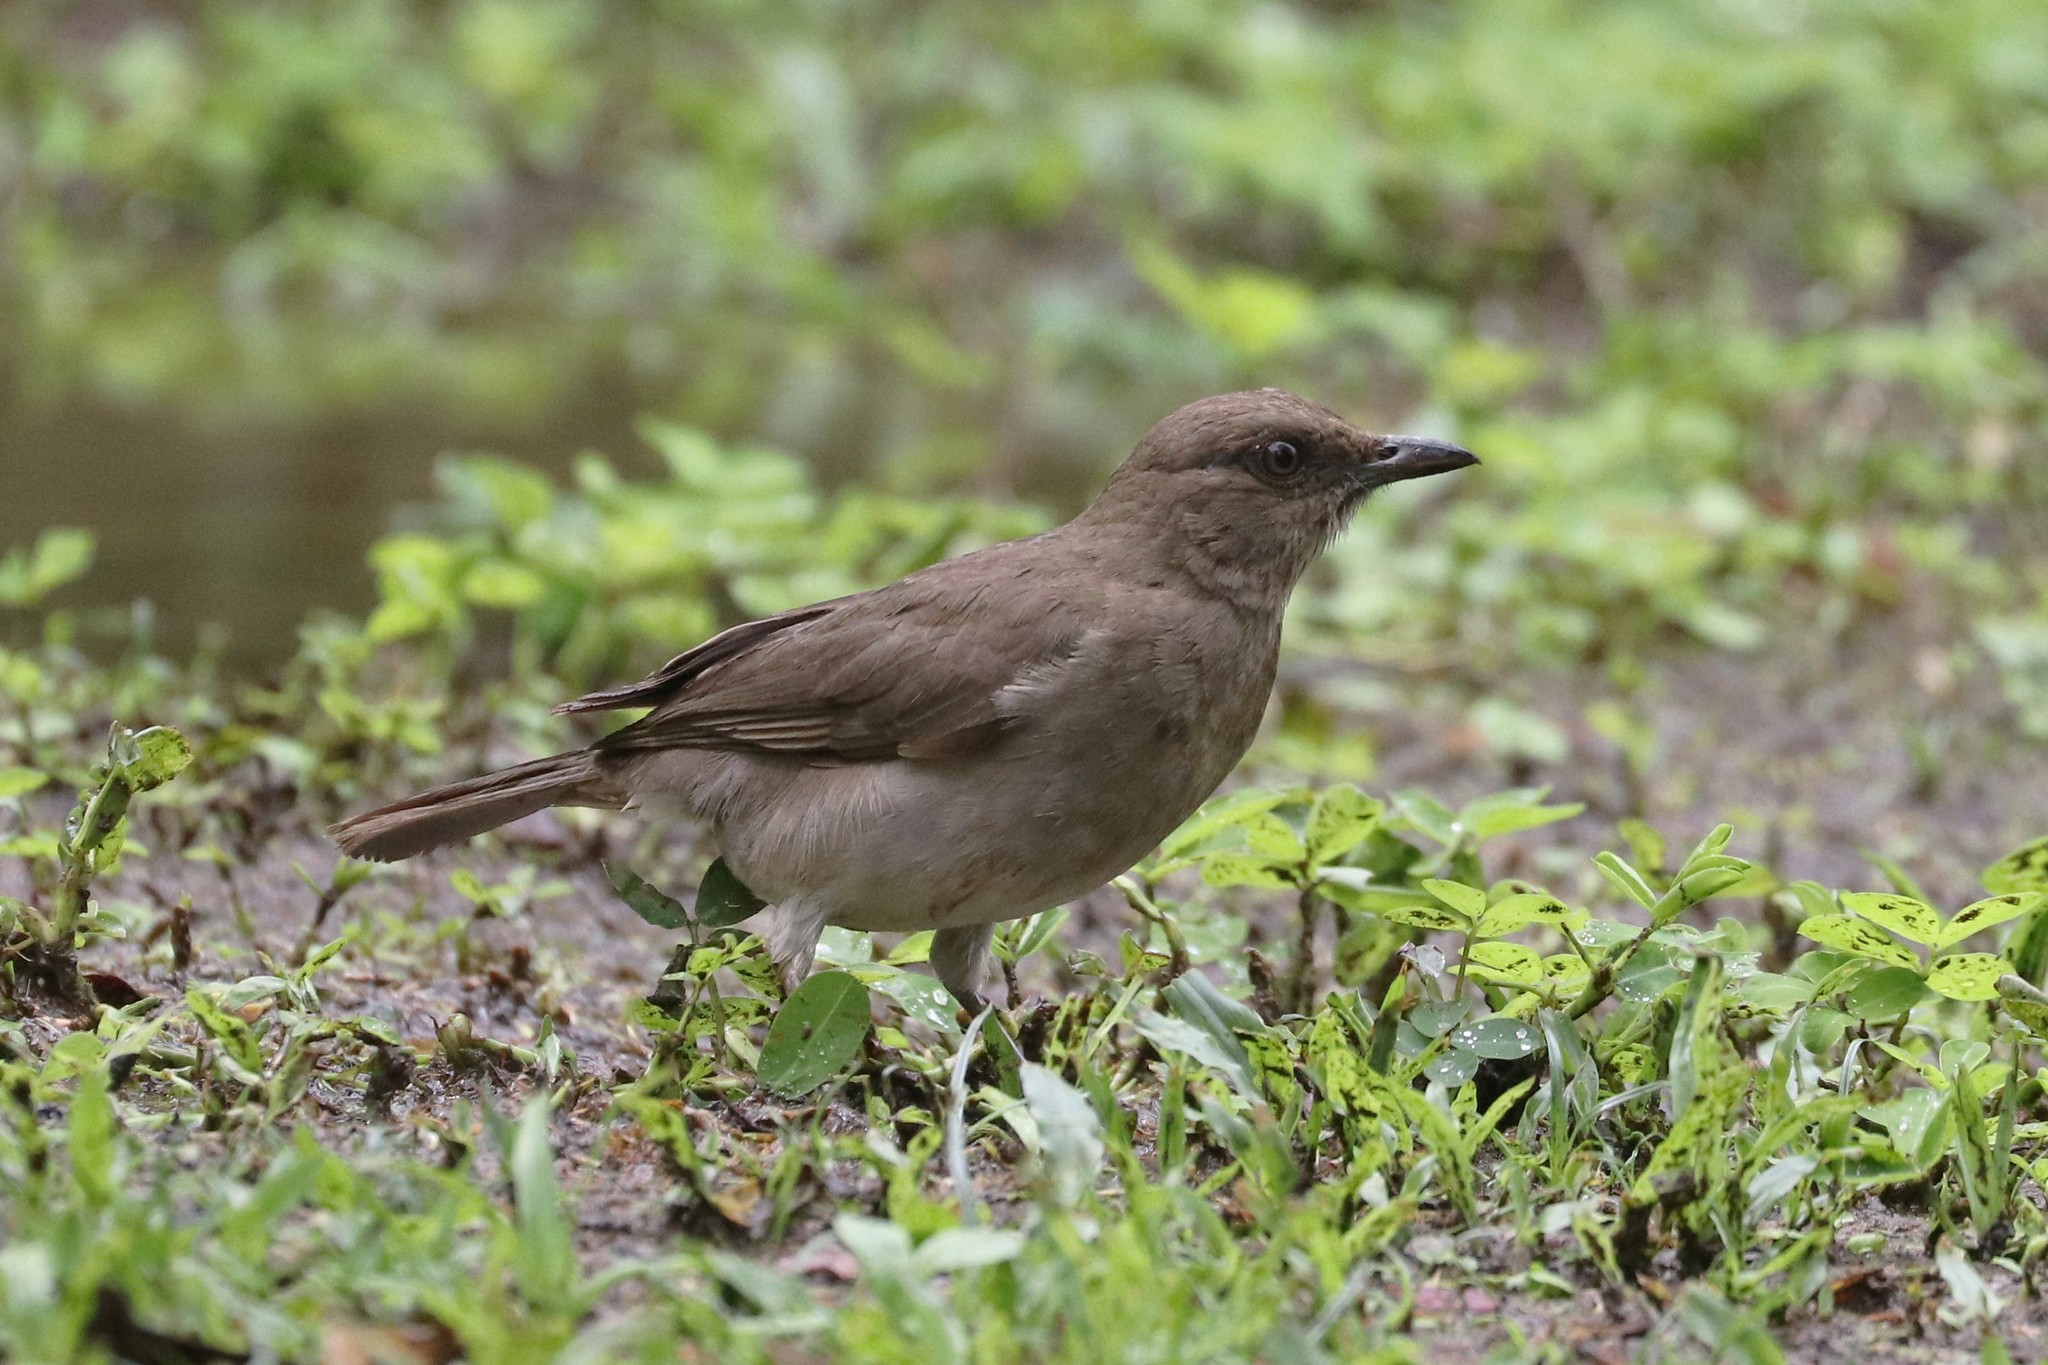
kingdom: Animalia
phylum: Chordata
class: Aves
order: Passeriformes
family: Turdidae
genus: Turdus
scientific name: Turdus ignobilis
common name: Black-billed thrush
